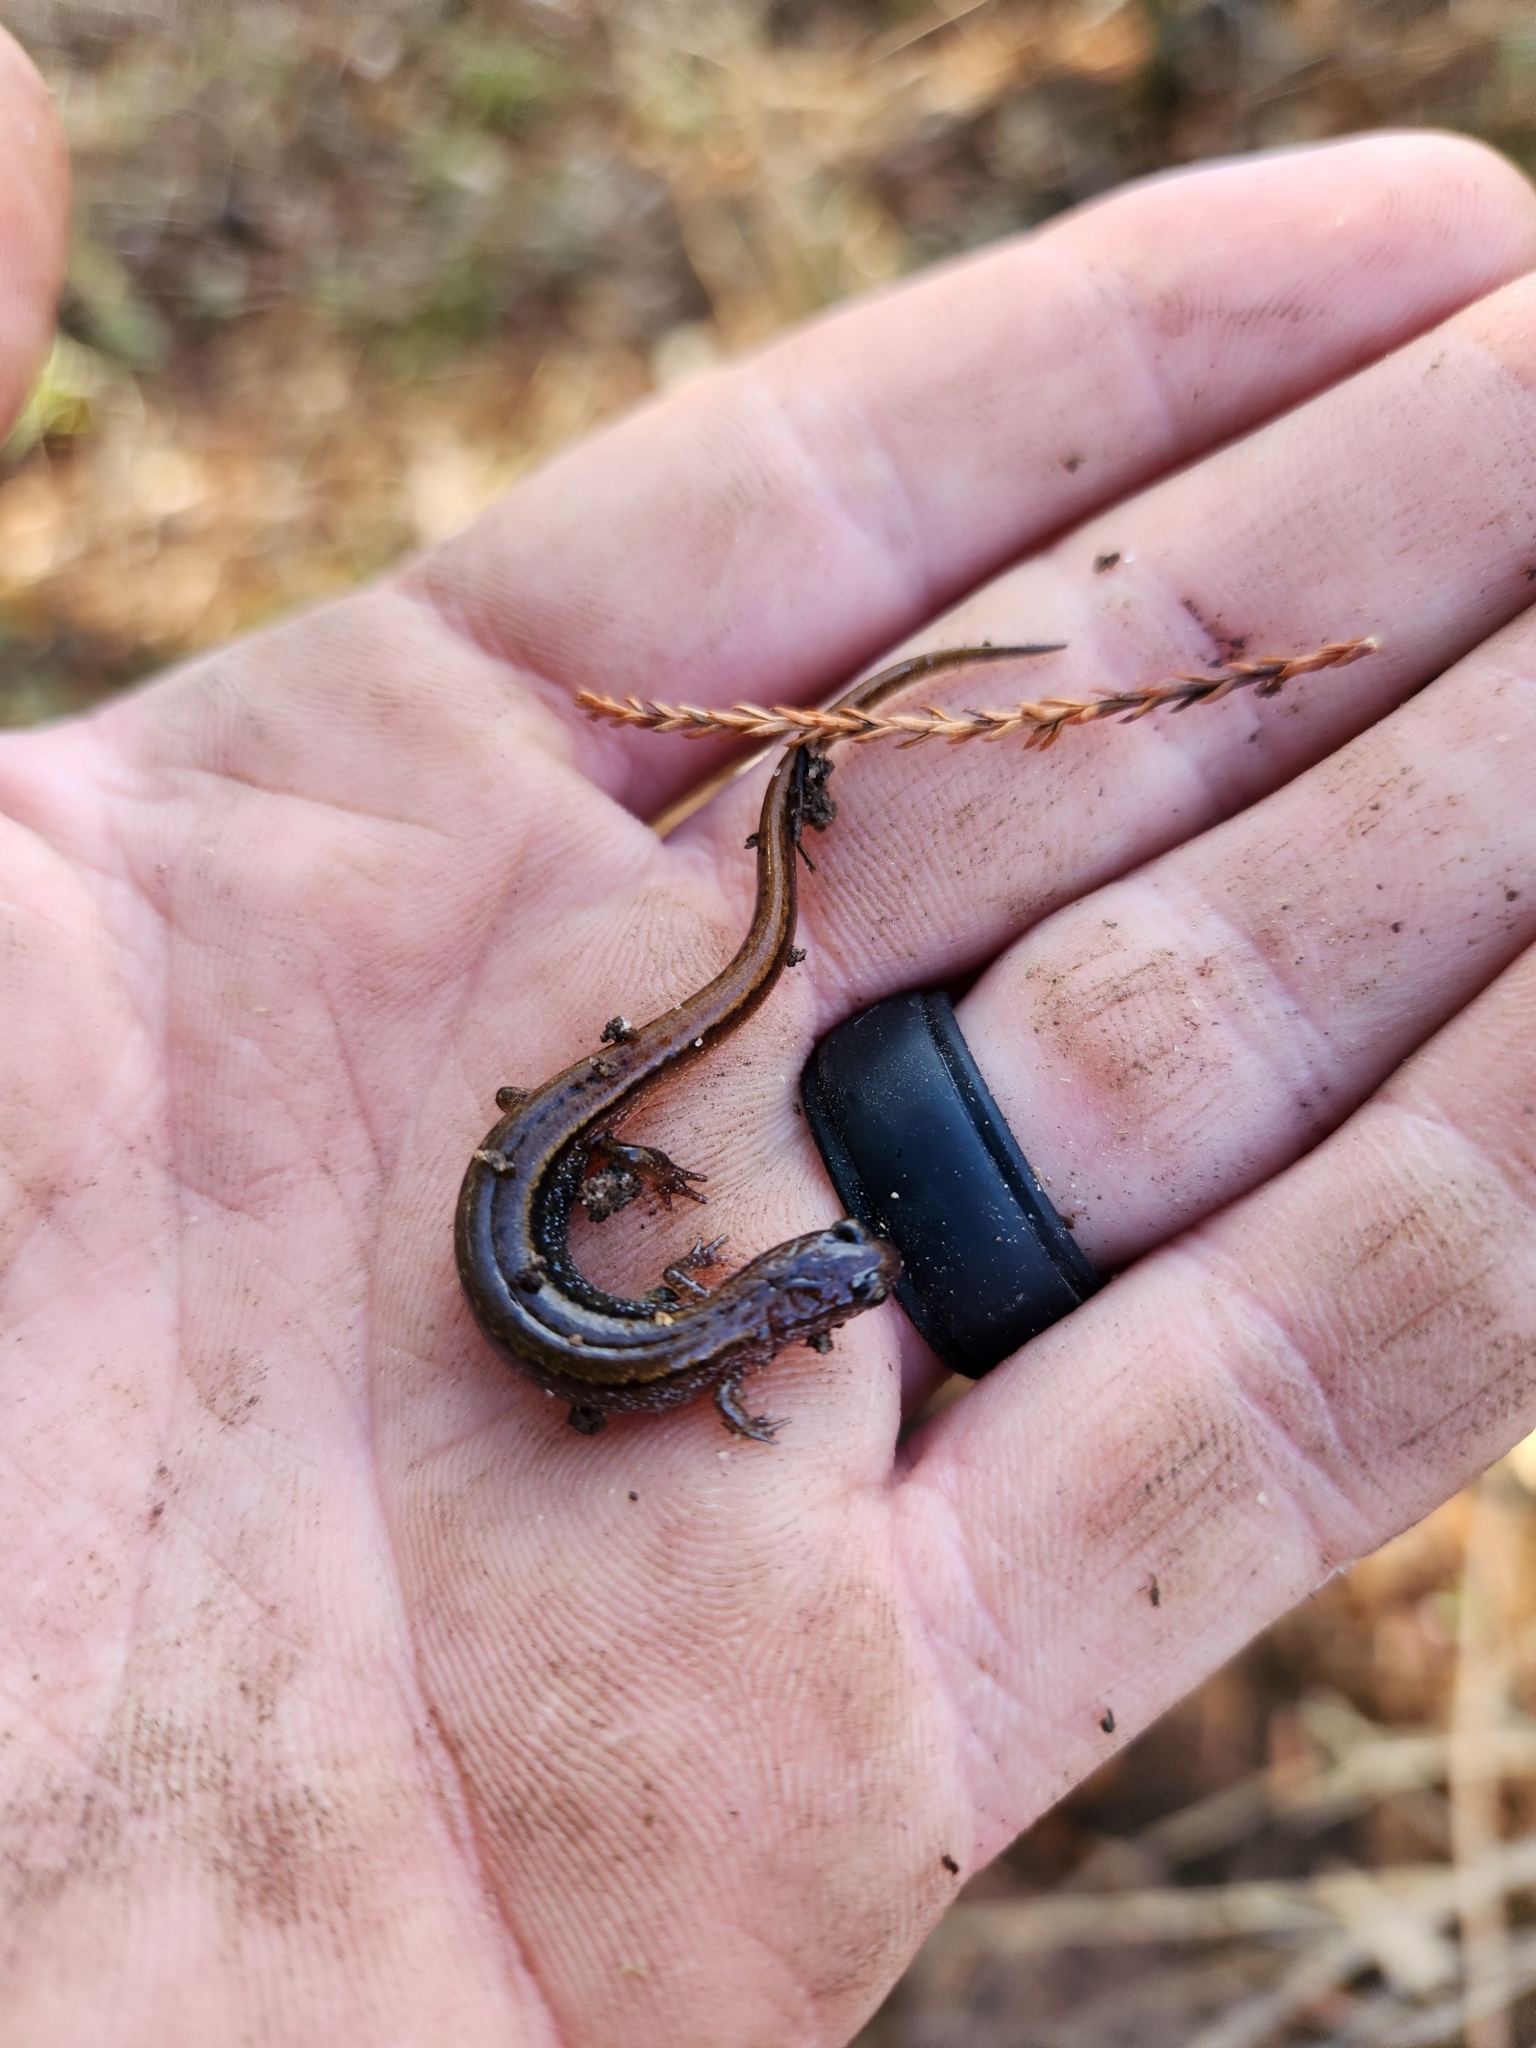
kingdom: Animalia
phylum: Chordata
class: Amphibia
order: Caudata
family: Plethodontidae
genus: Eurycea
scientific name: Eurycea paludicola
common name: Western dwarf salamander
